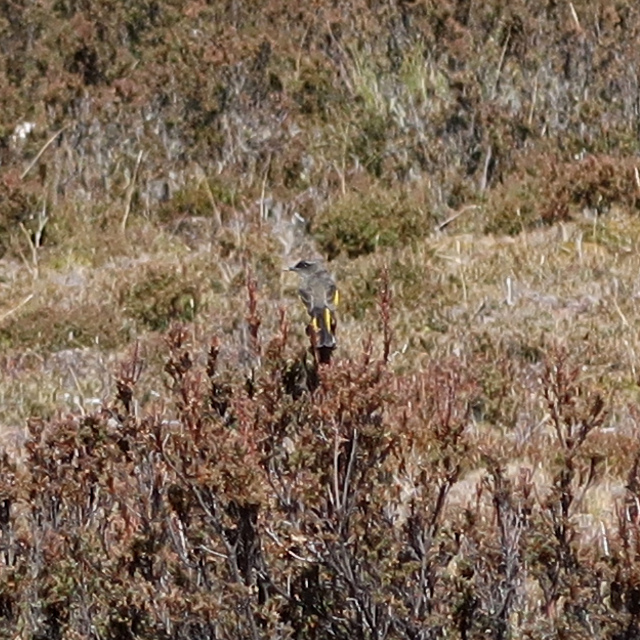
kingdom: Animalia
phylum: Chordata
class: Aves
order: Passeriformes
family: Meliphagidae
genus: Phylidonyris
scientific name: Phylidonyris pyrrhopterus
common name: Crescent honeyeater
